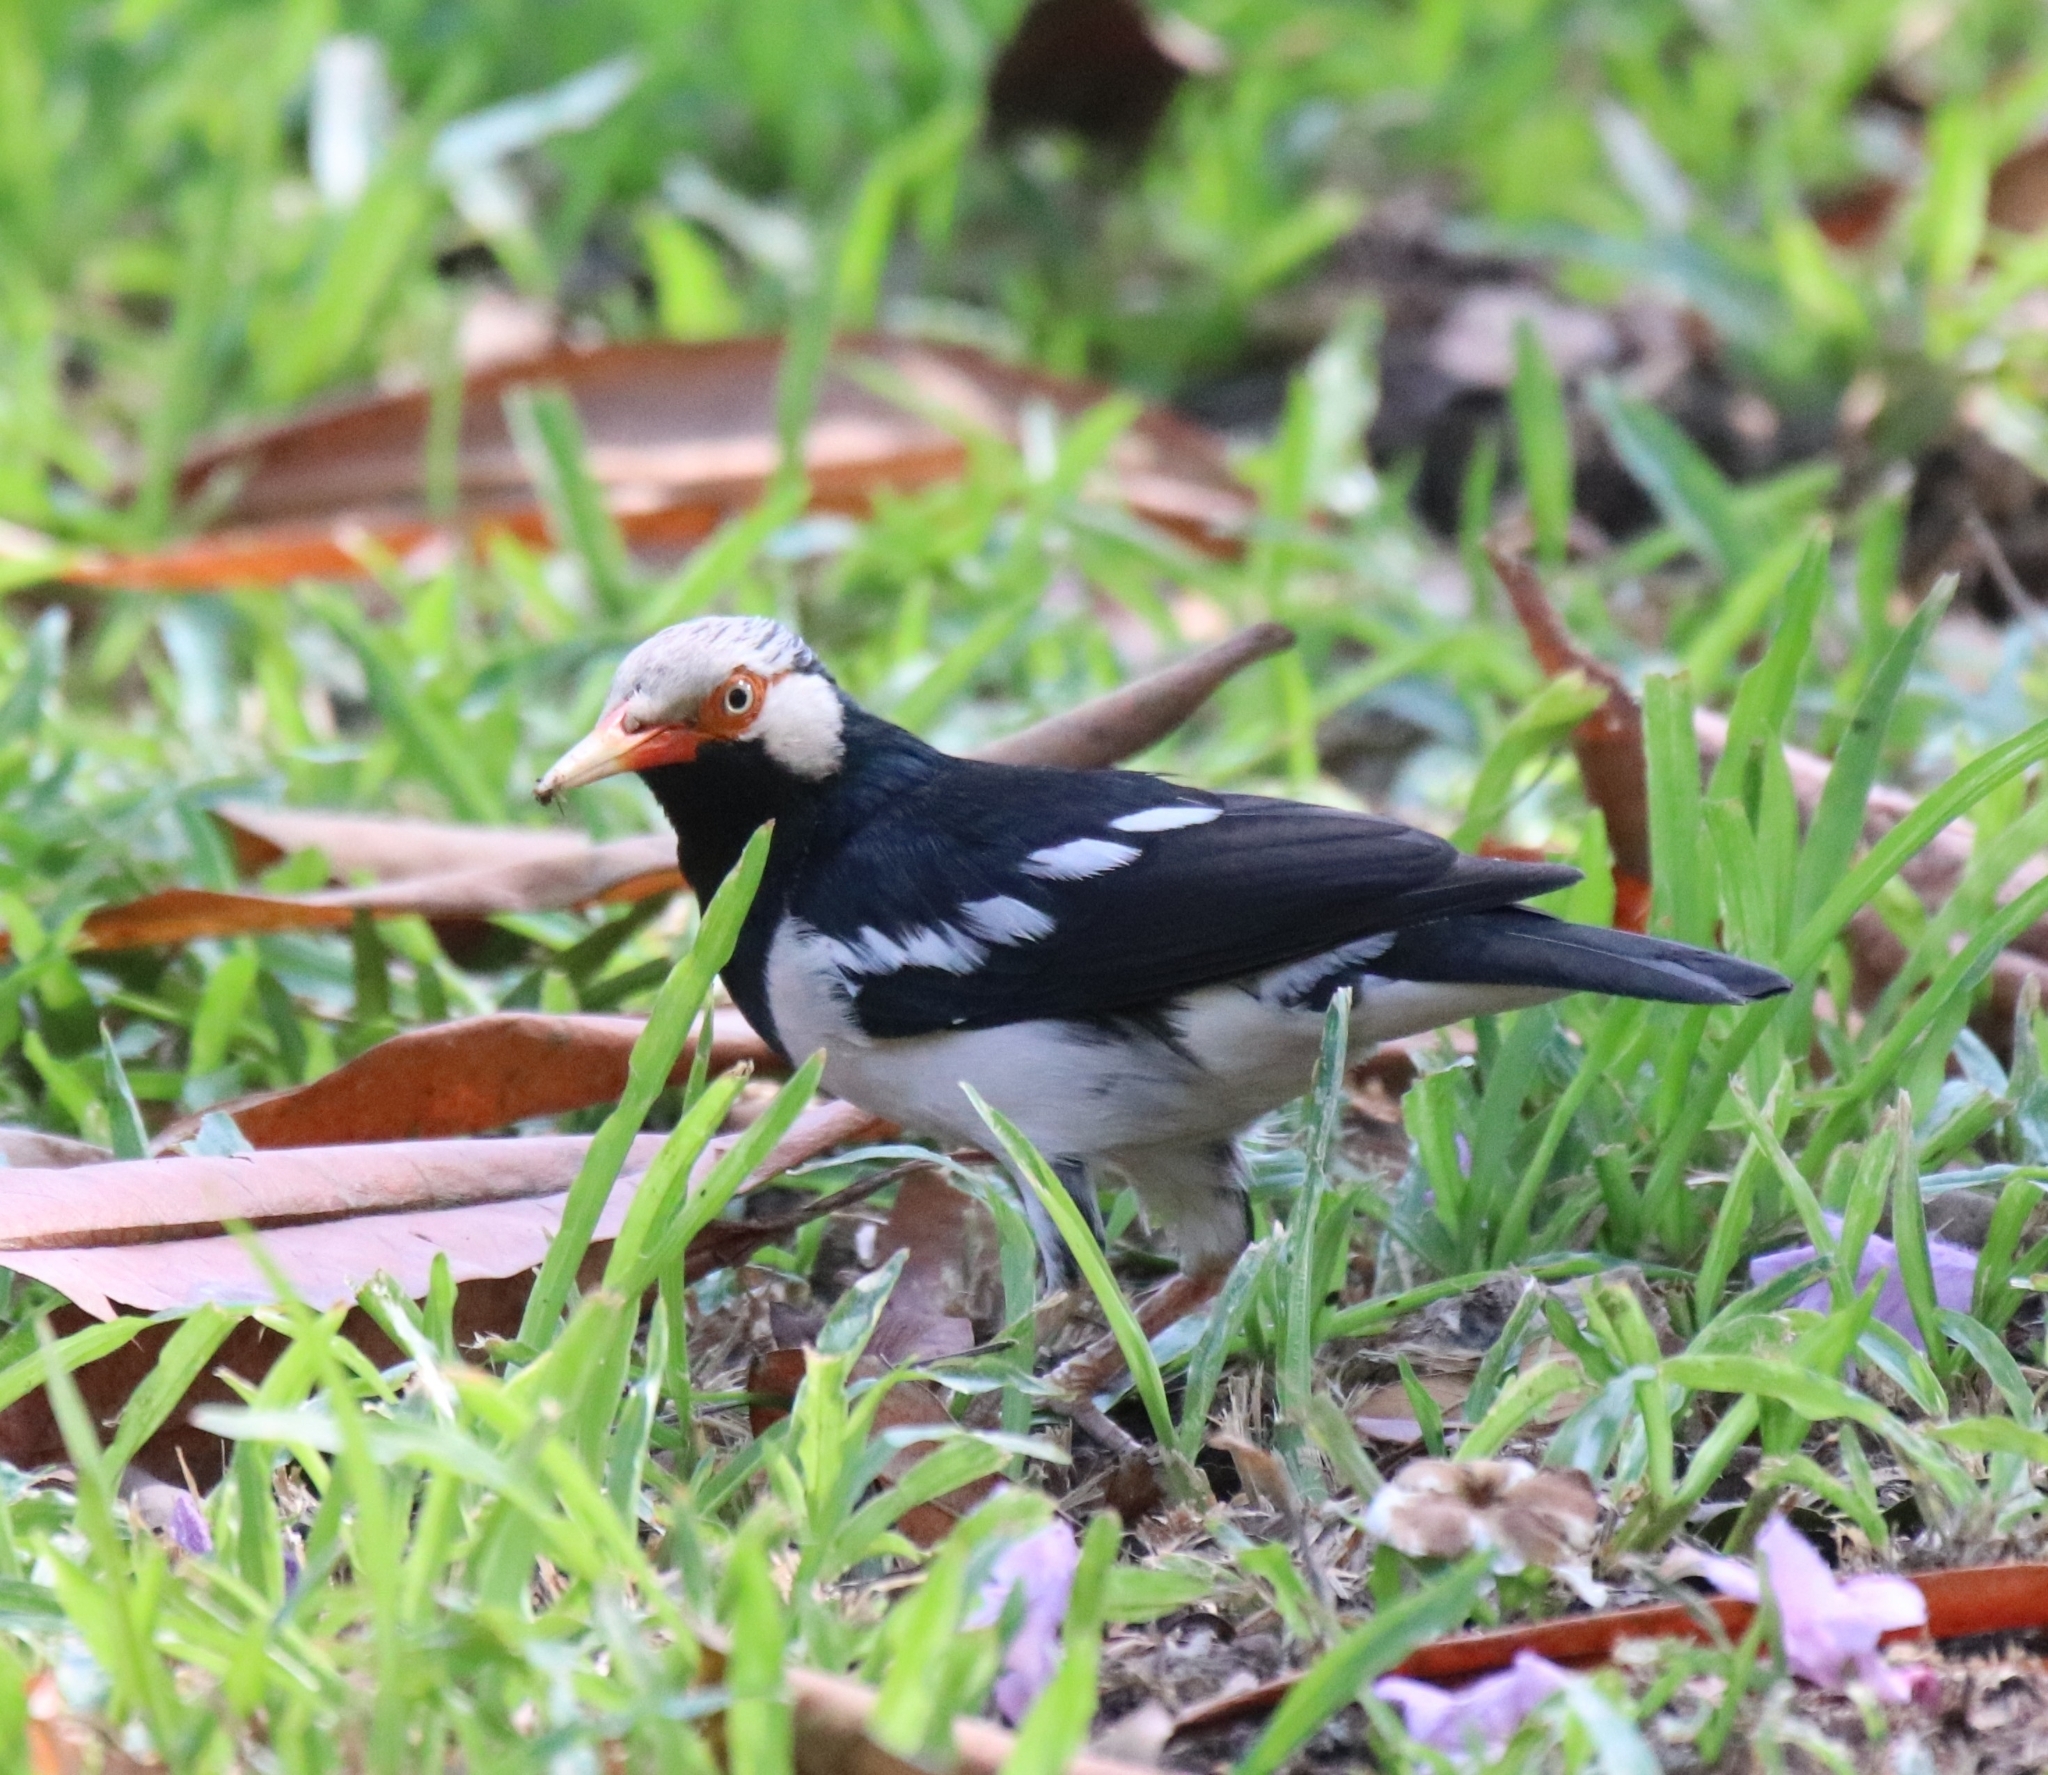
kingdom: Animalia
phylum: Chordata
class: Aves
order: Passeriformes
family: Sturnidae
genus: Gracupica
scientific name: Gracupica contra
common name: Pied myna
